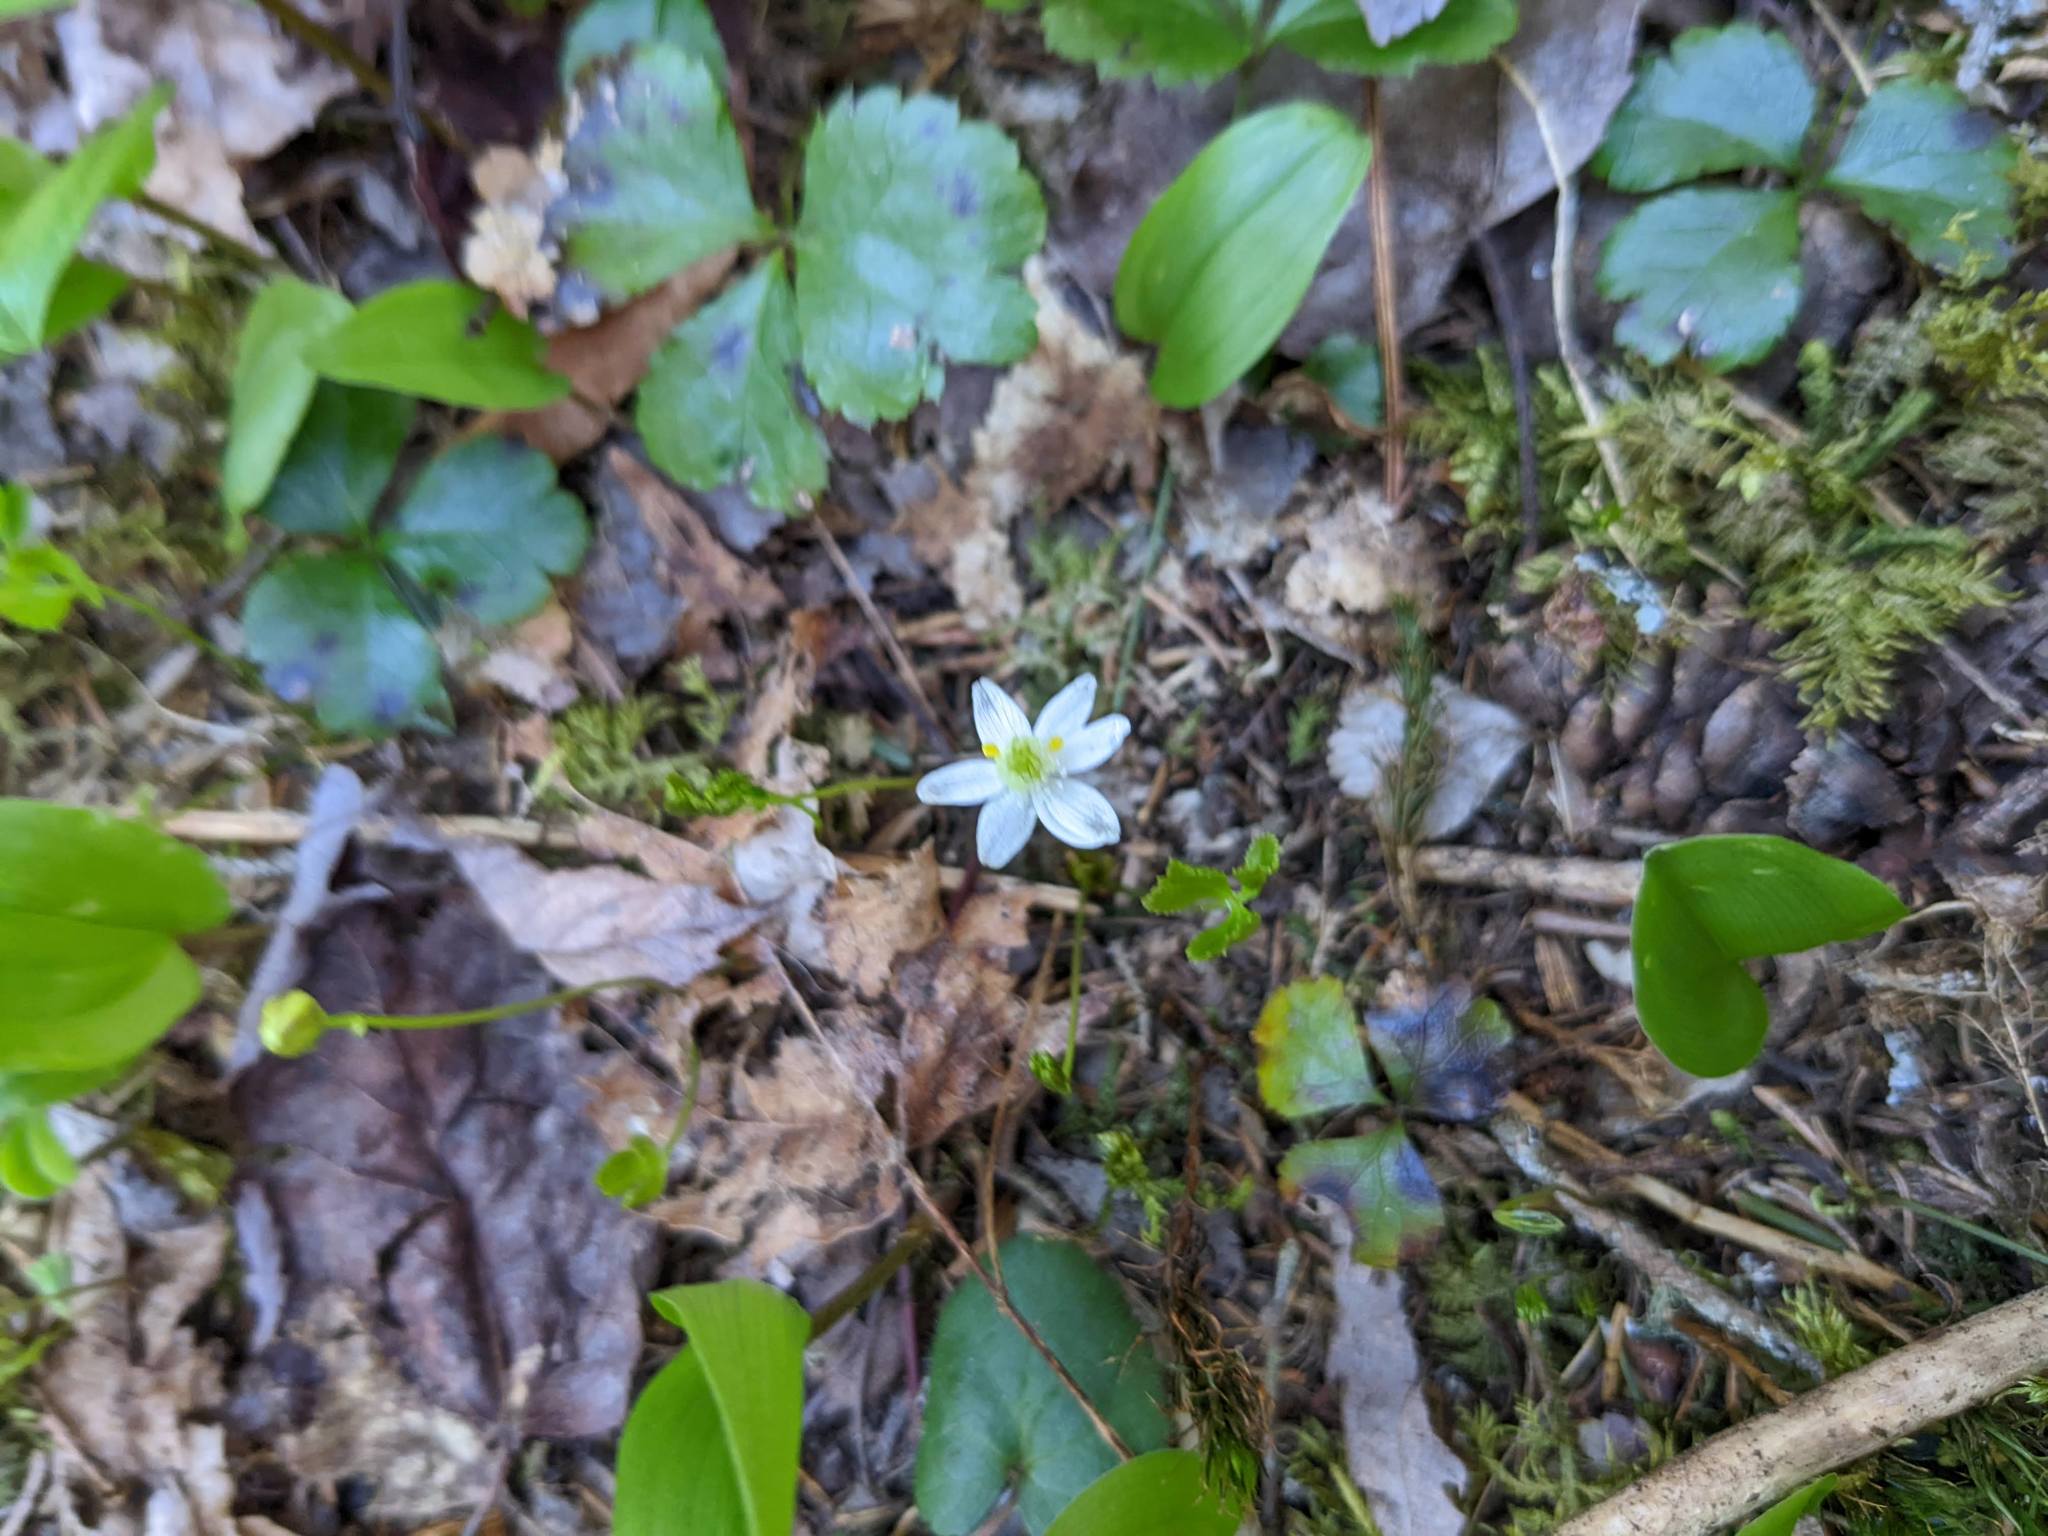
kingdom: Plantae
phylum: Tracheophyta
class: Magnoliopsida
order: Ranunculales
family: Ranunculaceae
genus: Coptis
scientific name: Coptis trifolia
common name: Canker-root
